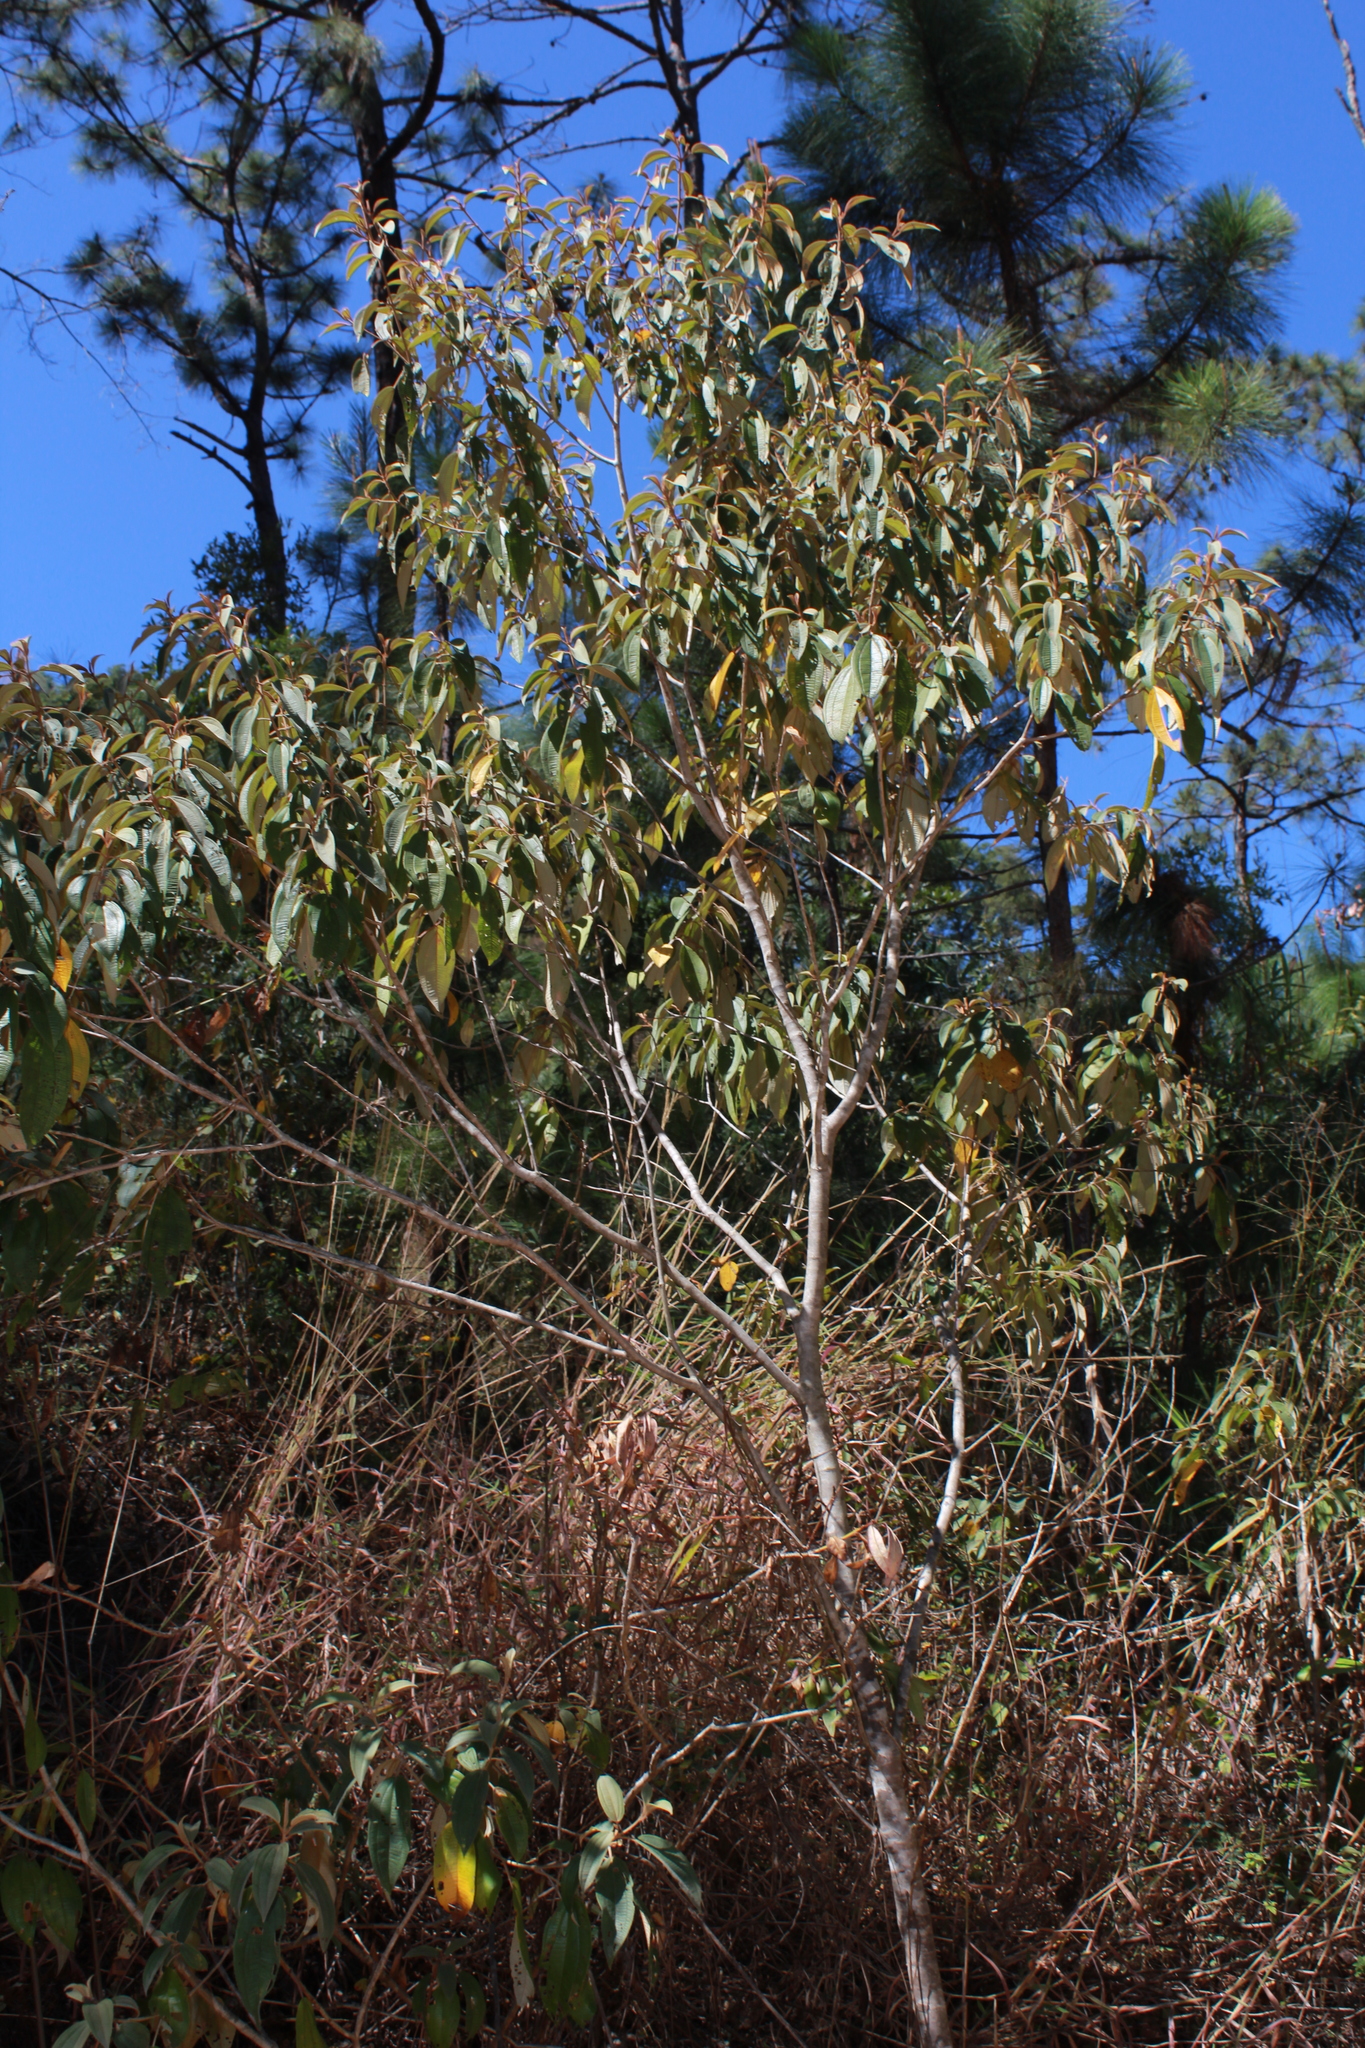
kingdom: Plantae
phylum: Tracheophyta
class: Magnoliopsida
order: Myrtales
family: Melastomataceae
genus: Miconia
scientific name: Miconia xalapensis
